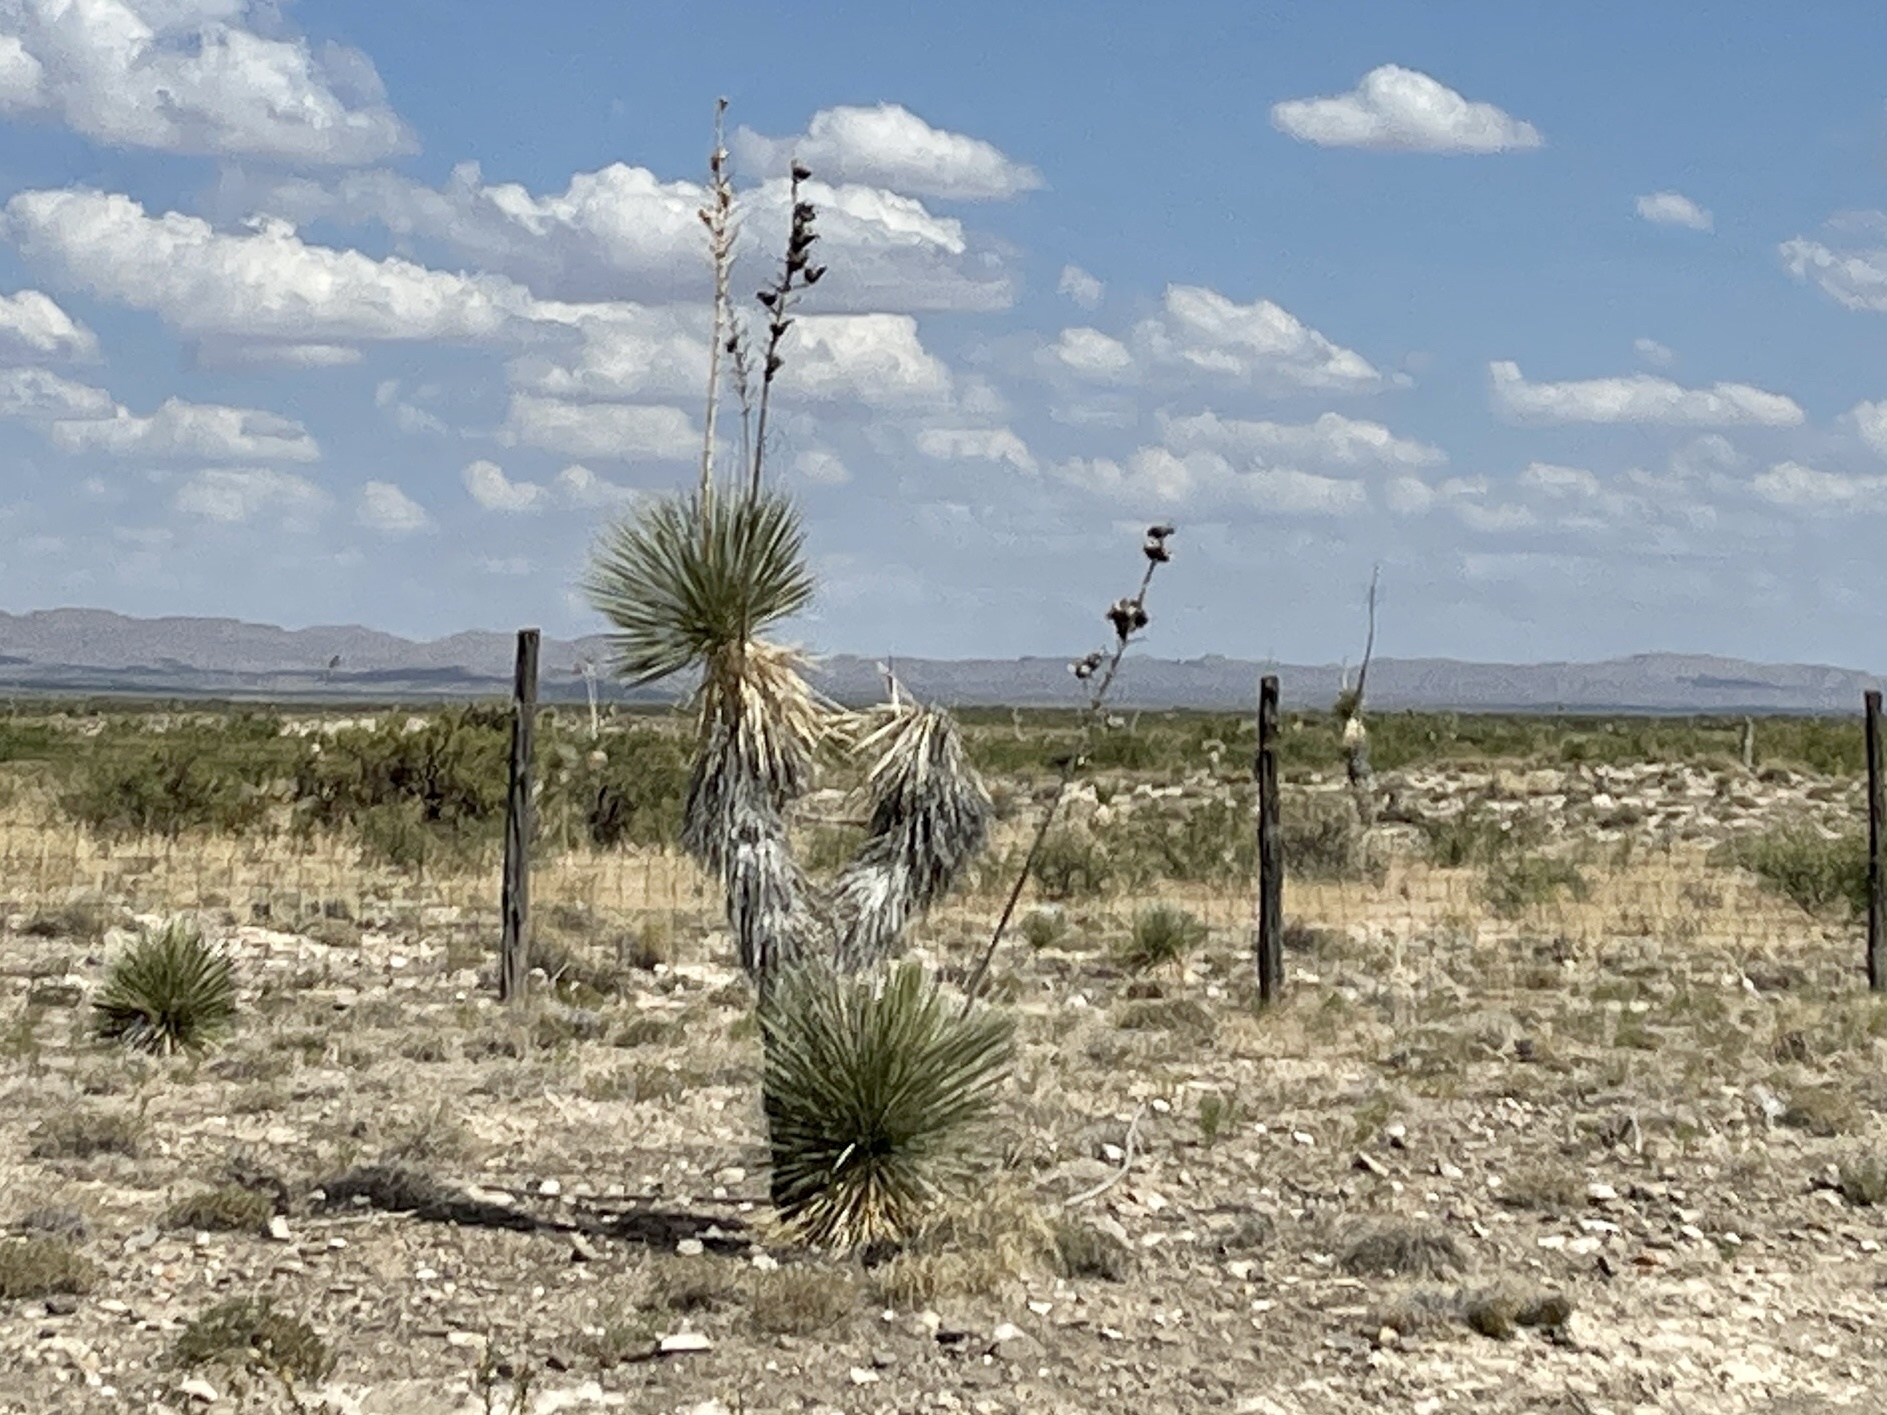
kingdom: Plantae
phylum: Tracheophyta
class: Liliopsida
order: Asparagales
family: Asparagaceae
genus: Yucca
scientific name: Yucca elata
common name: Palmella
